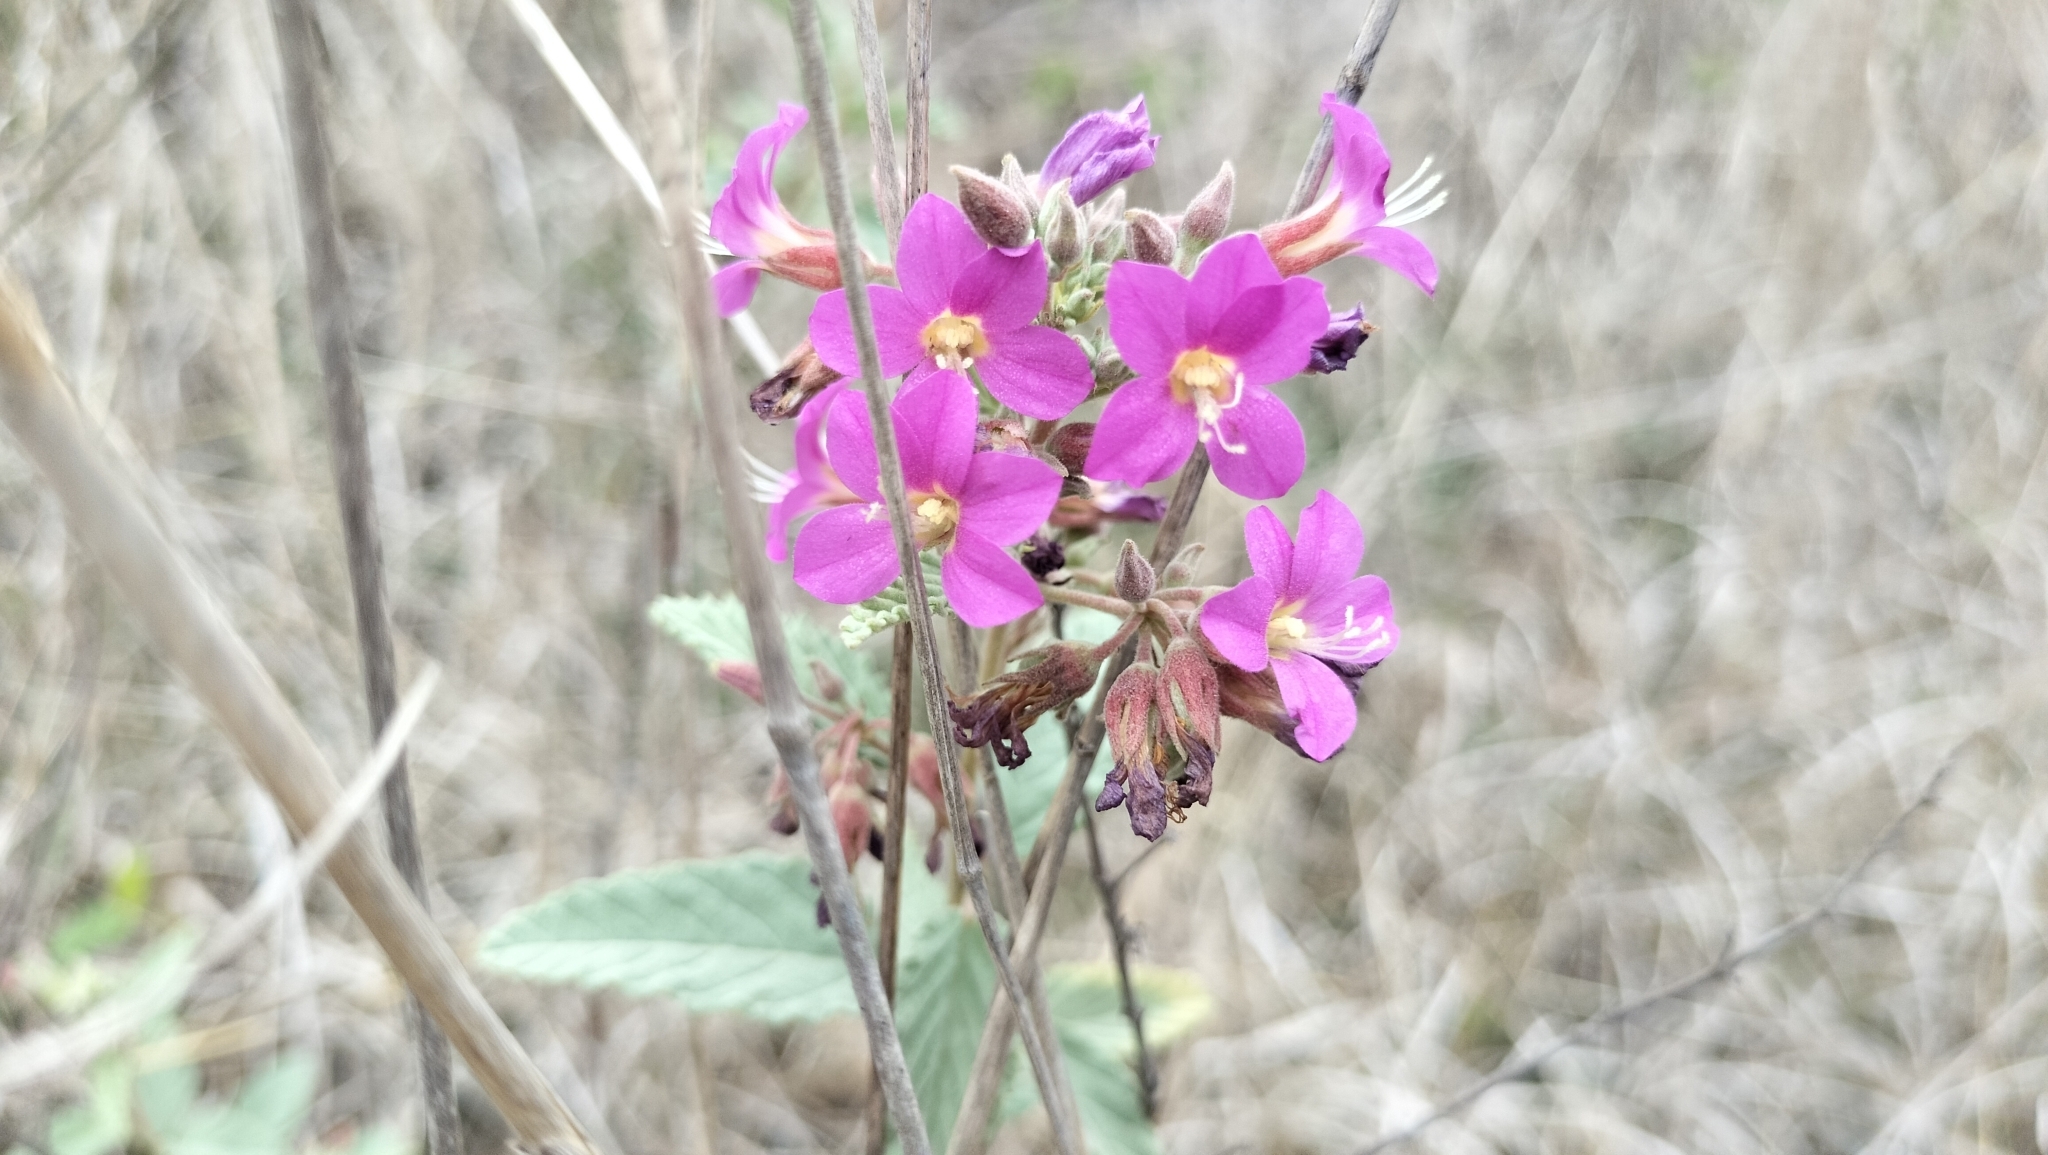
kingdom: Plantae
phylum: Tracheophyta
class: Magnoliopsida
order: Malvales
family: Malvaceae
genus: Melochia
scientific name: Melochia tomentosa
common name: Black torch
